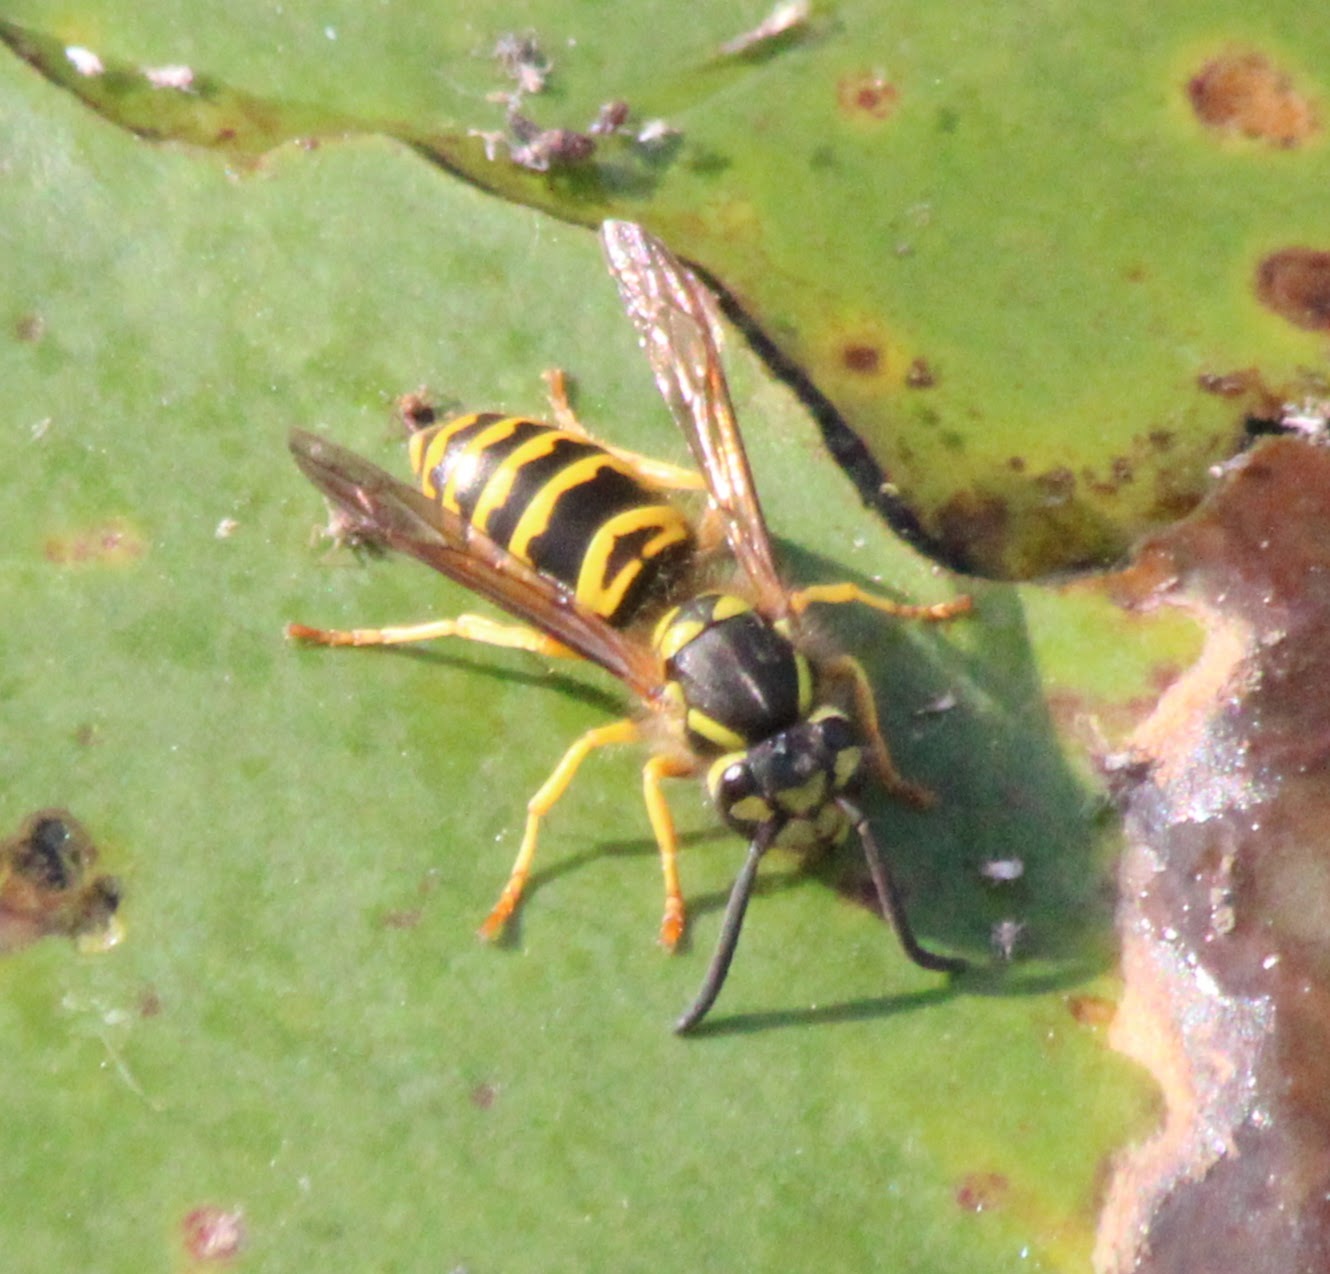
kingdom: Animalia
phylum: Arthropoda
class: Insecta
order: Hymenoptera
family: Vespidae
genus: Vespula
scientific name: Vespula maculifrons
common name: Eastern yellowjacket
